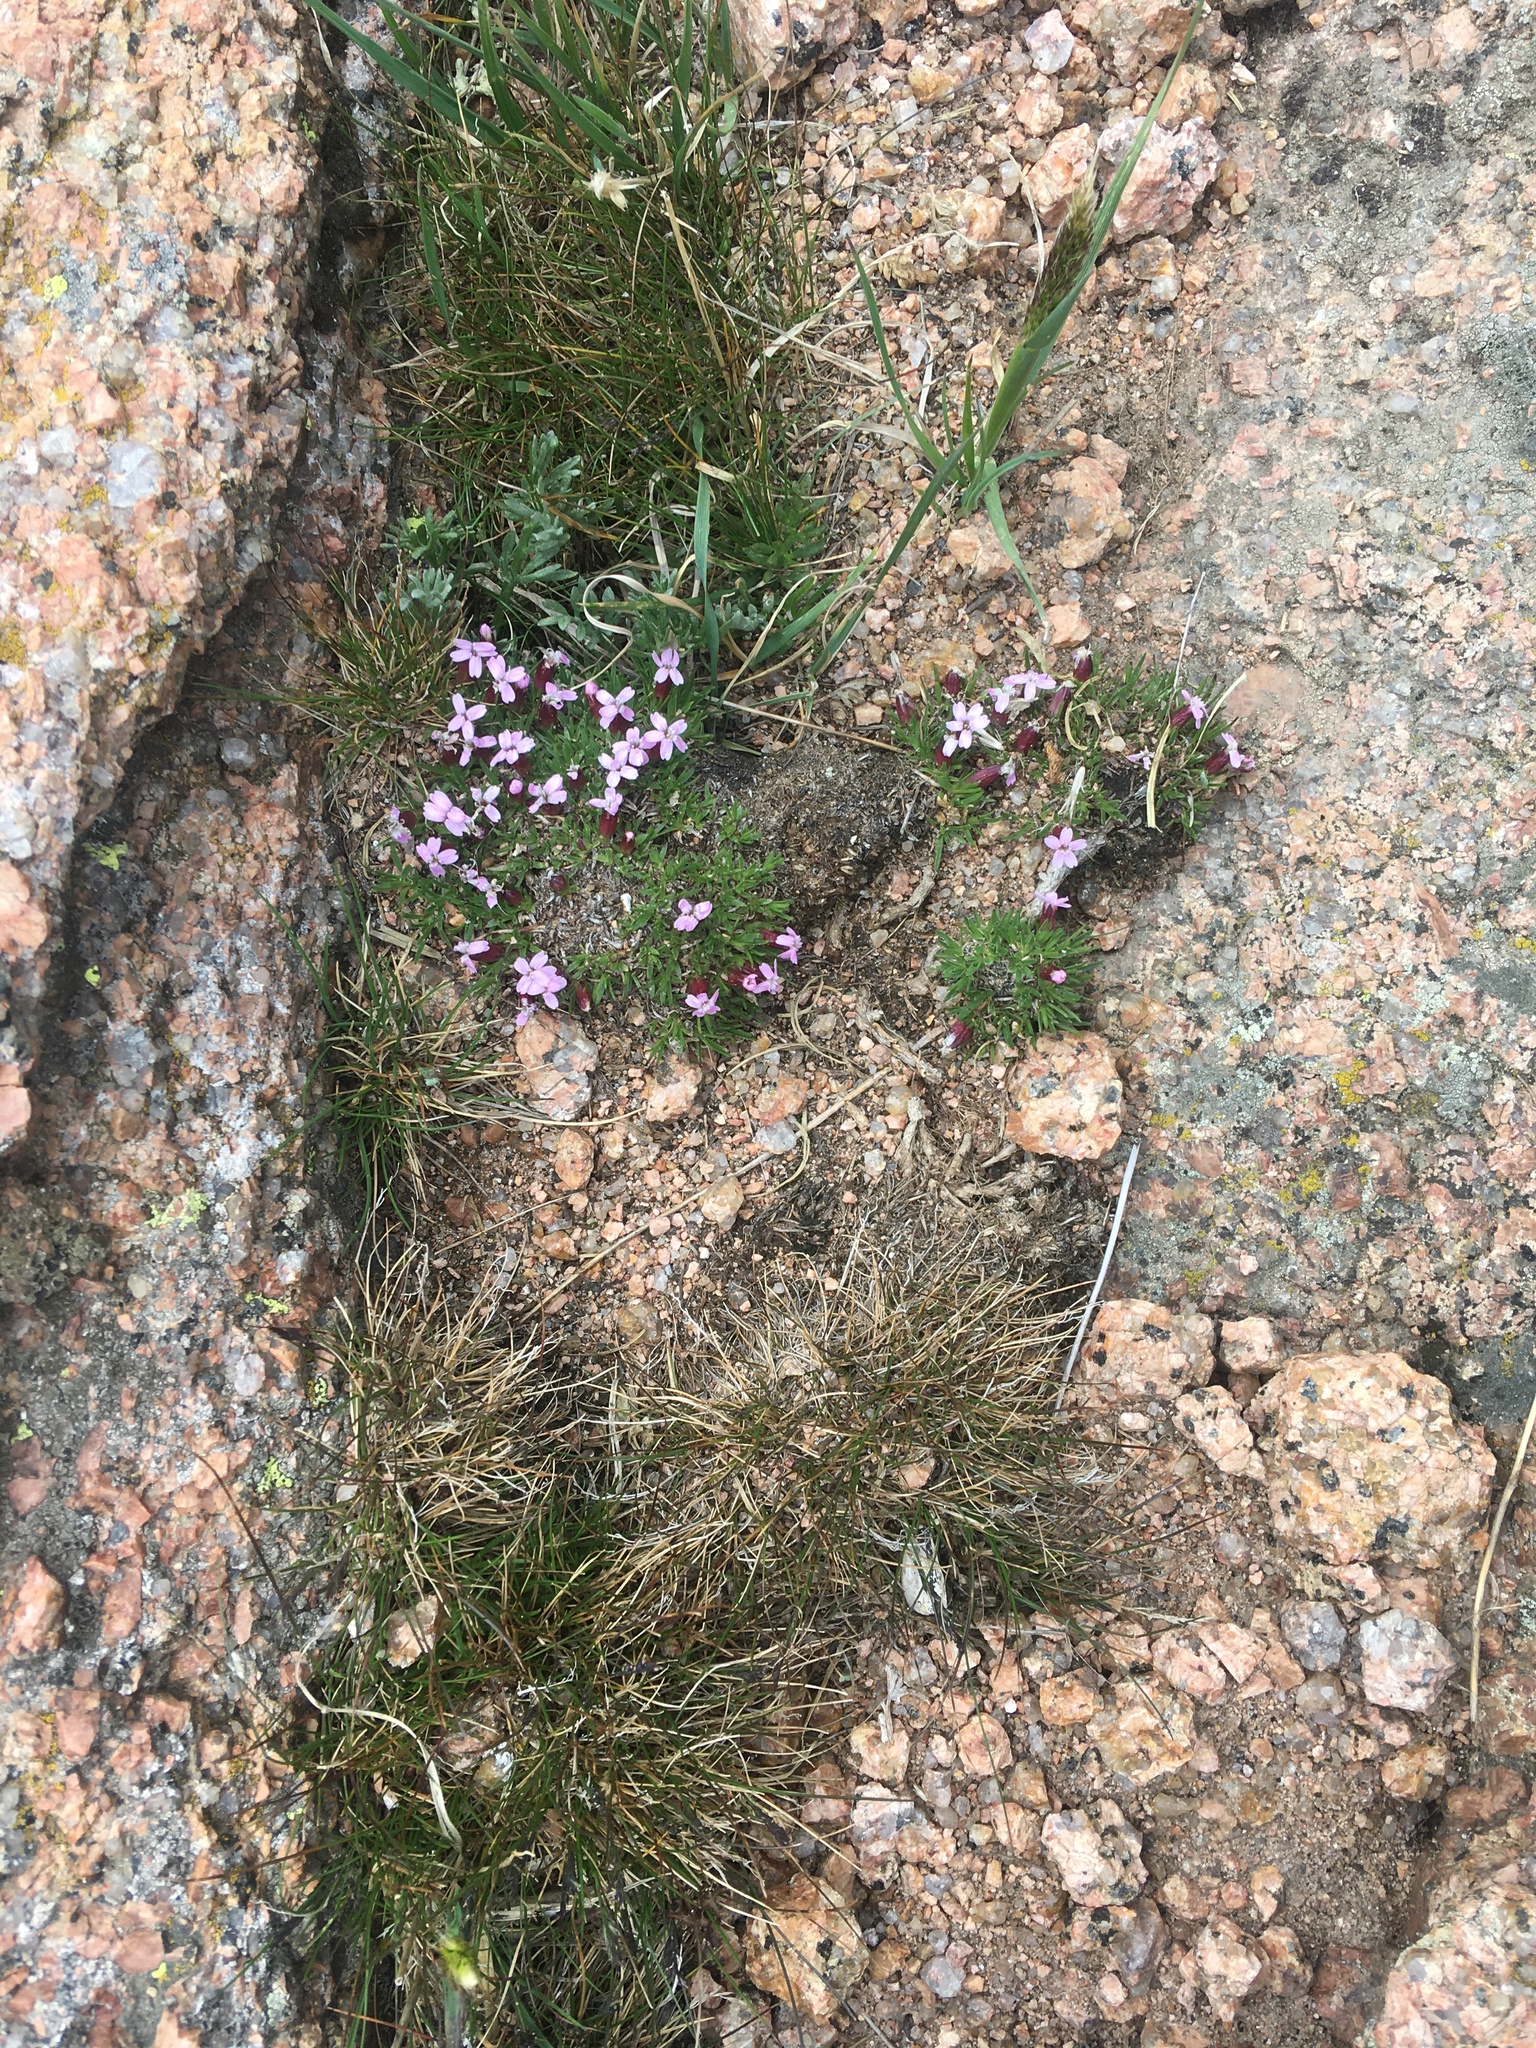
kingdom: Plantae
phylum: Tracheophyta
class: Magnoliopsida
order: Caryophyllales
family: Caryophyllaceae
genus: Silene
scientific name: Silene acaulis
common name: Moss campion
